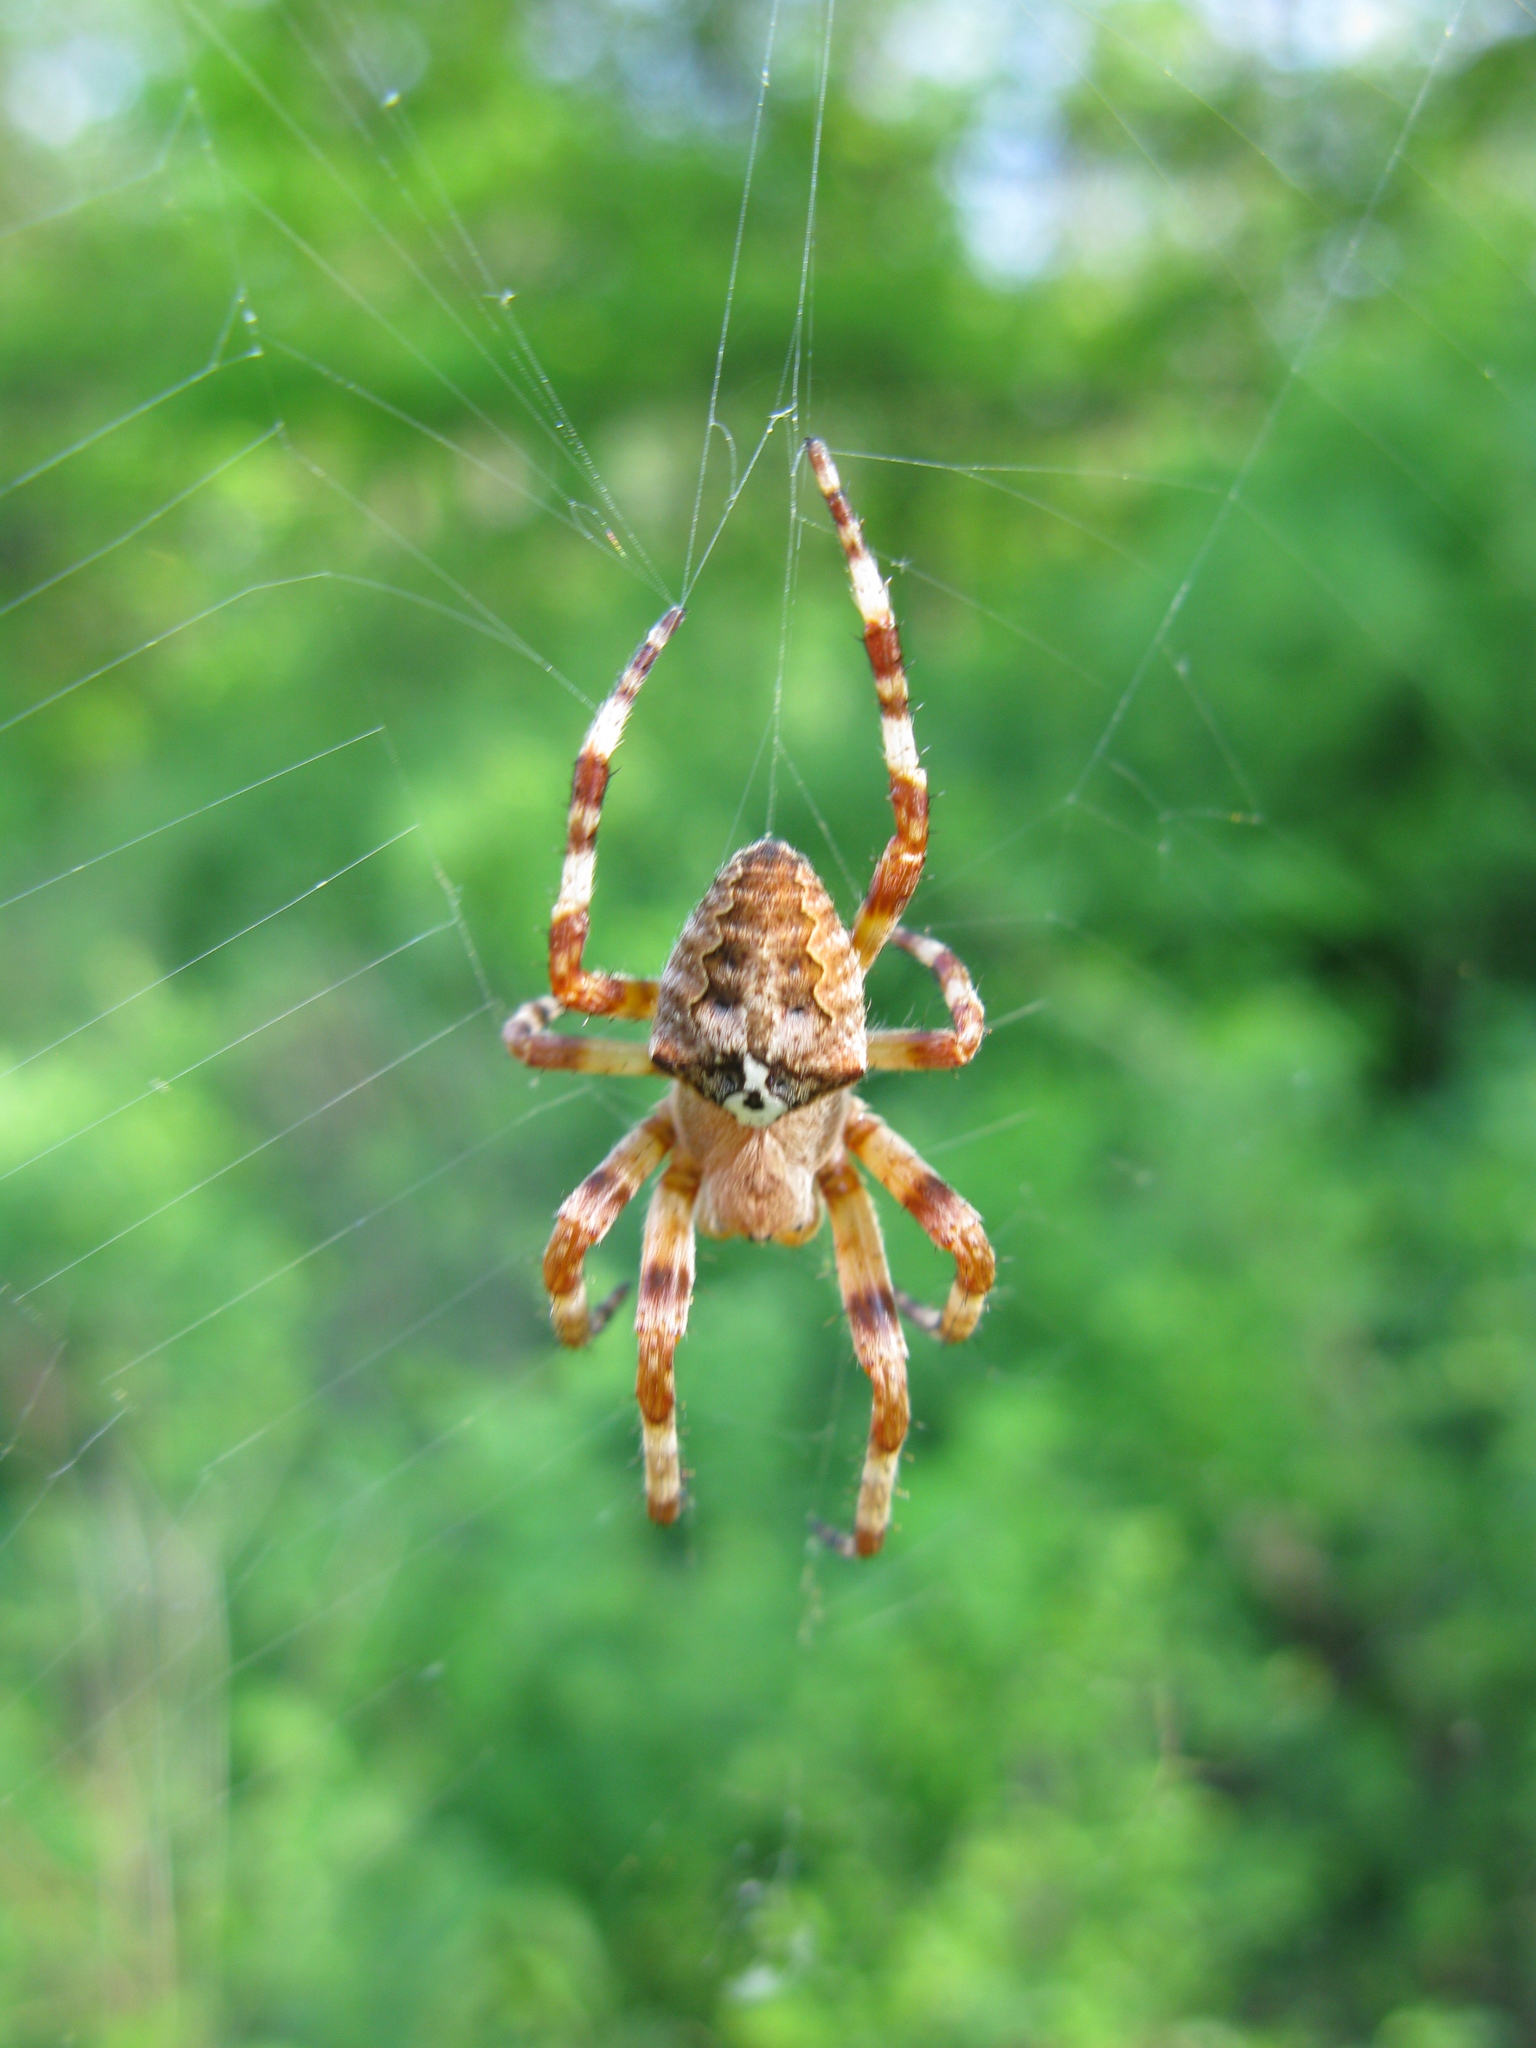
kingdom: Animalia
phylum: Arthropoda
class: Arachnida
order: Araneae
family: Araneidae
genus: Araneus
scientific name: Araneus angulatus
